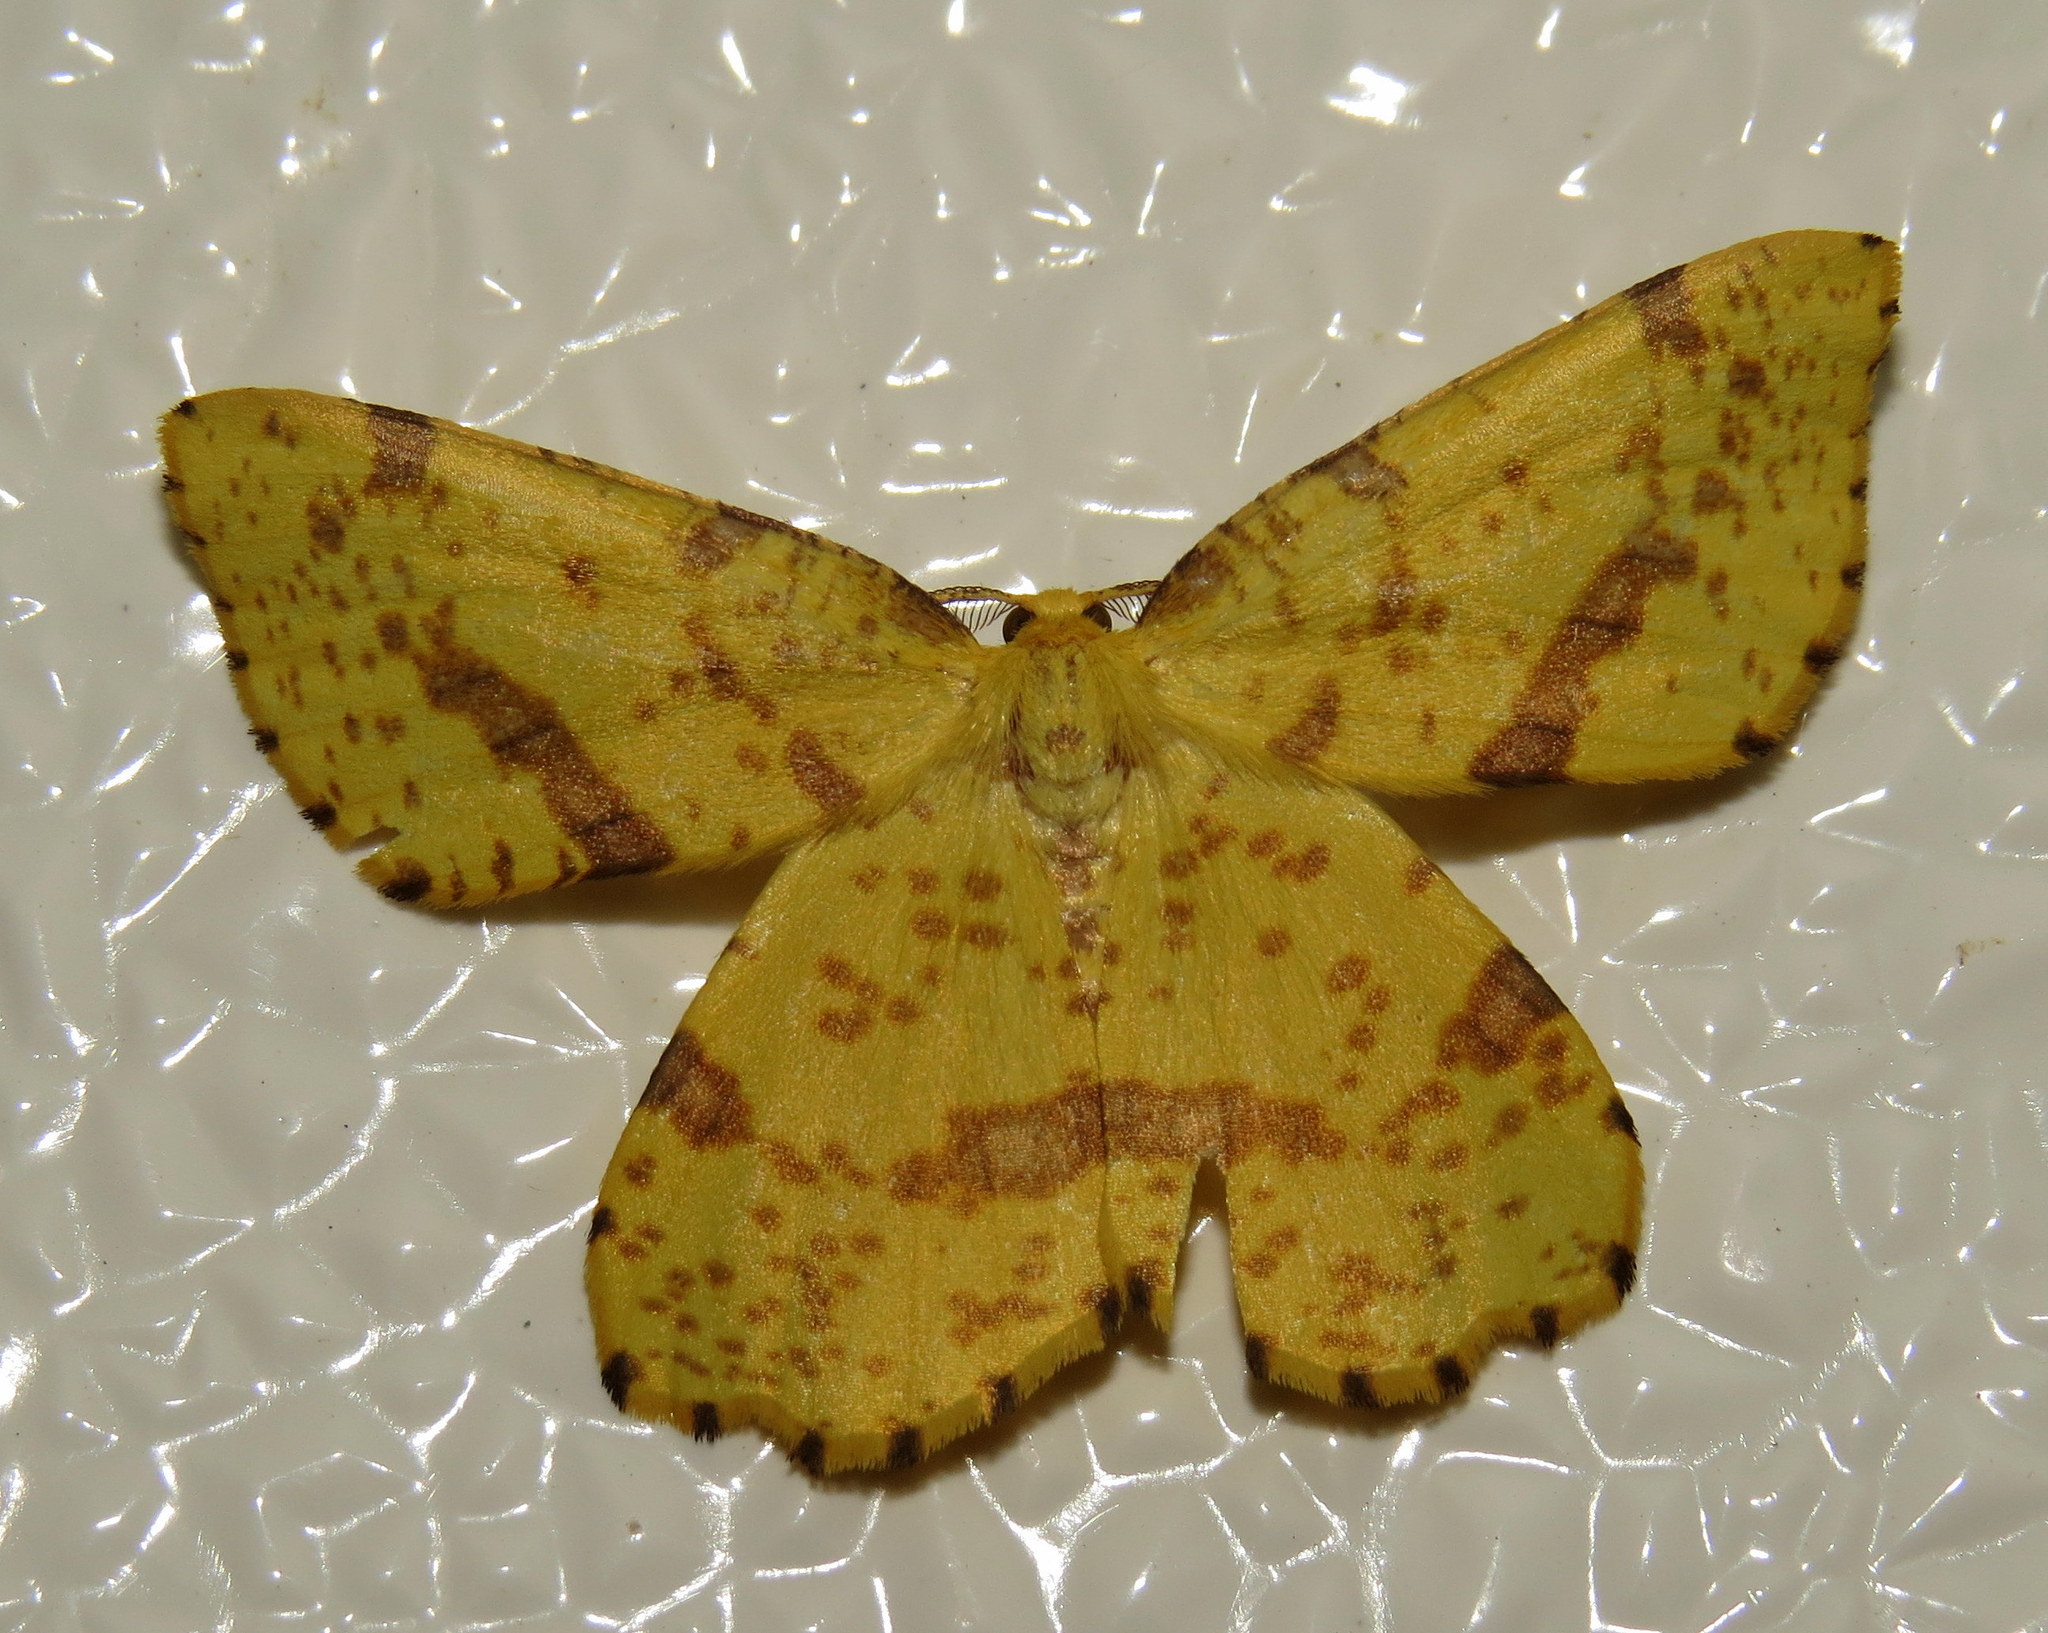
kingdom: Animalia
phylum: Arthropoda
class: Insecta
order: Lepidoptera
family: Geometridae
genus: Xanthotype
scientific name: Xanthotype
